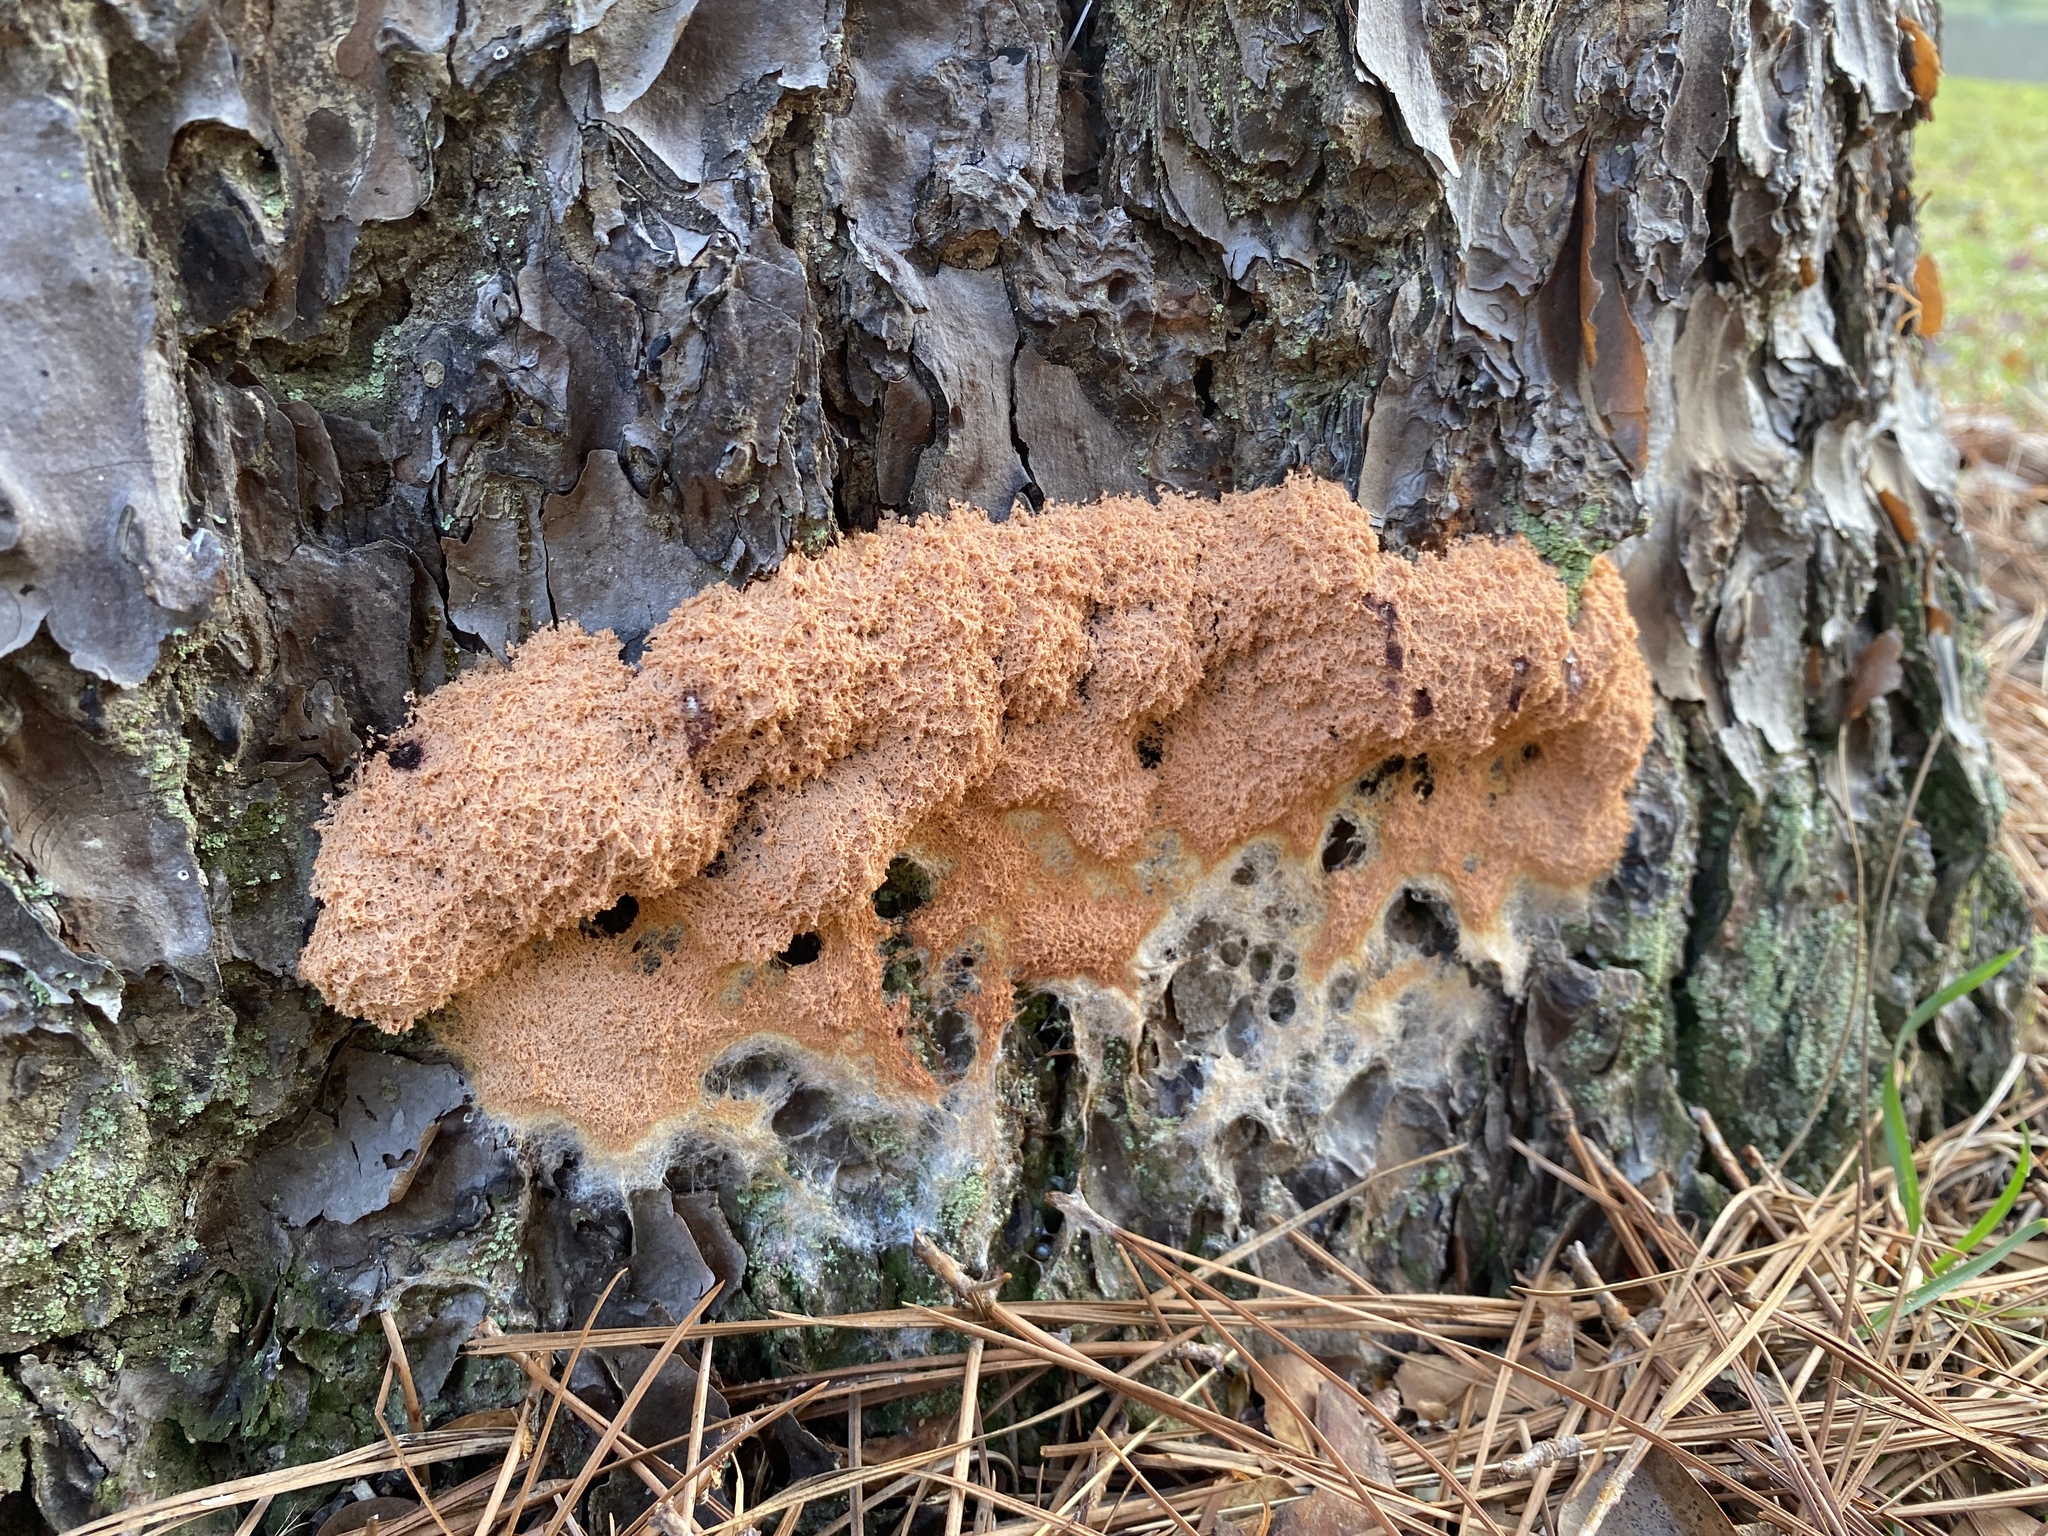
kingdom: Protozoa
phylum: Mycetozoa
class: Myxomycetes
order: Physarales
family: Physaraceae
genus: Fuligo
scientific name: Fuligo septica
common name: Dog vomit slime mold
